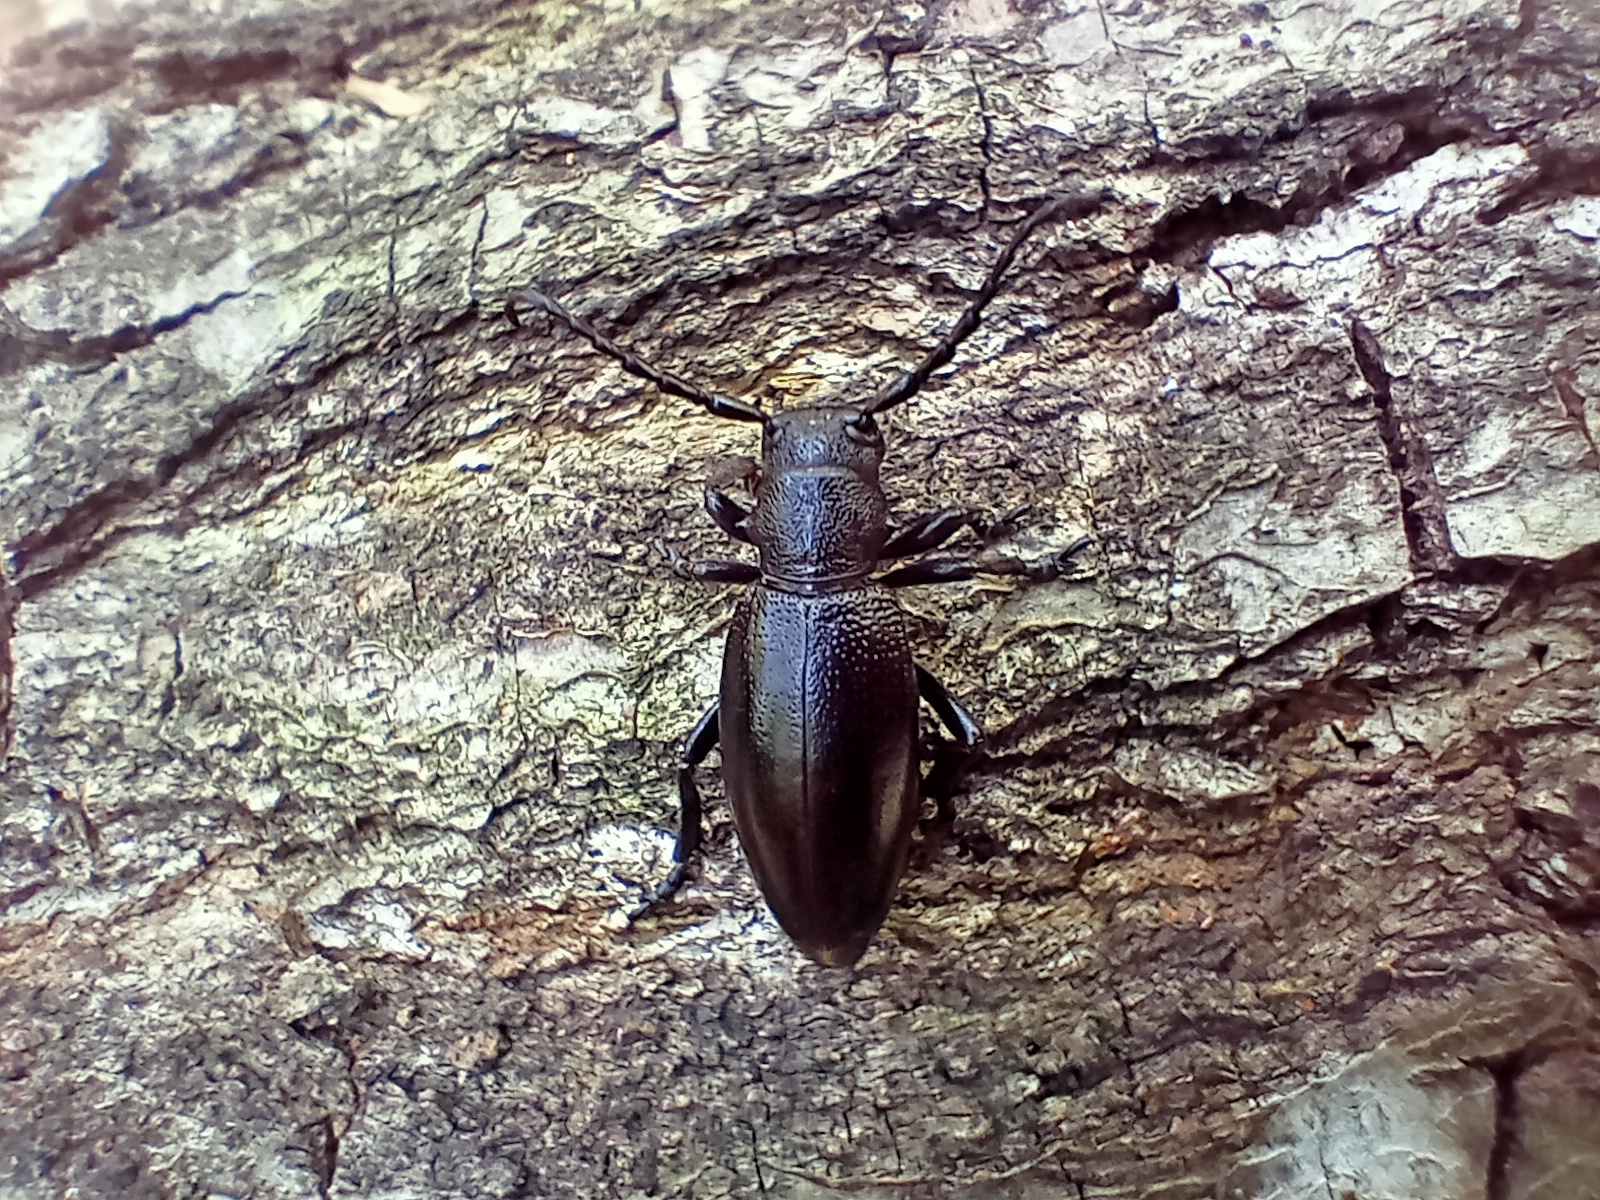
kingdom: Animalia
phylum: Arthropoda
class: Insecta
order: Coleoptera
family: Cerambycidae
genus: Dorcadion
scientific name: Dorcadion aethiops
